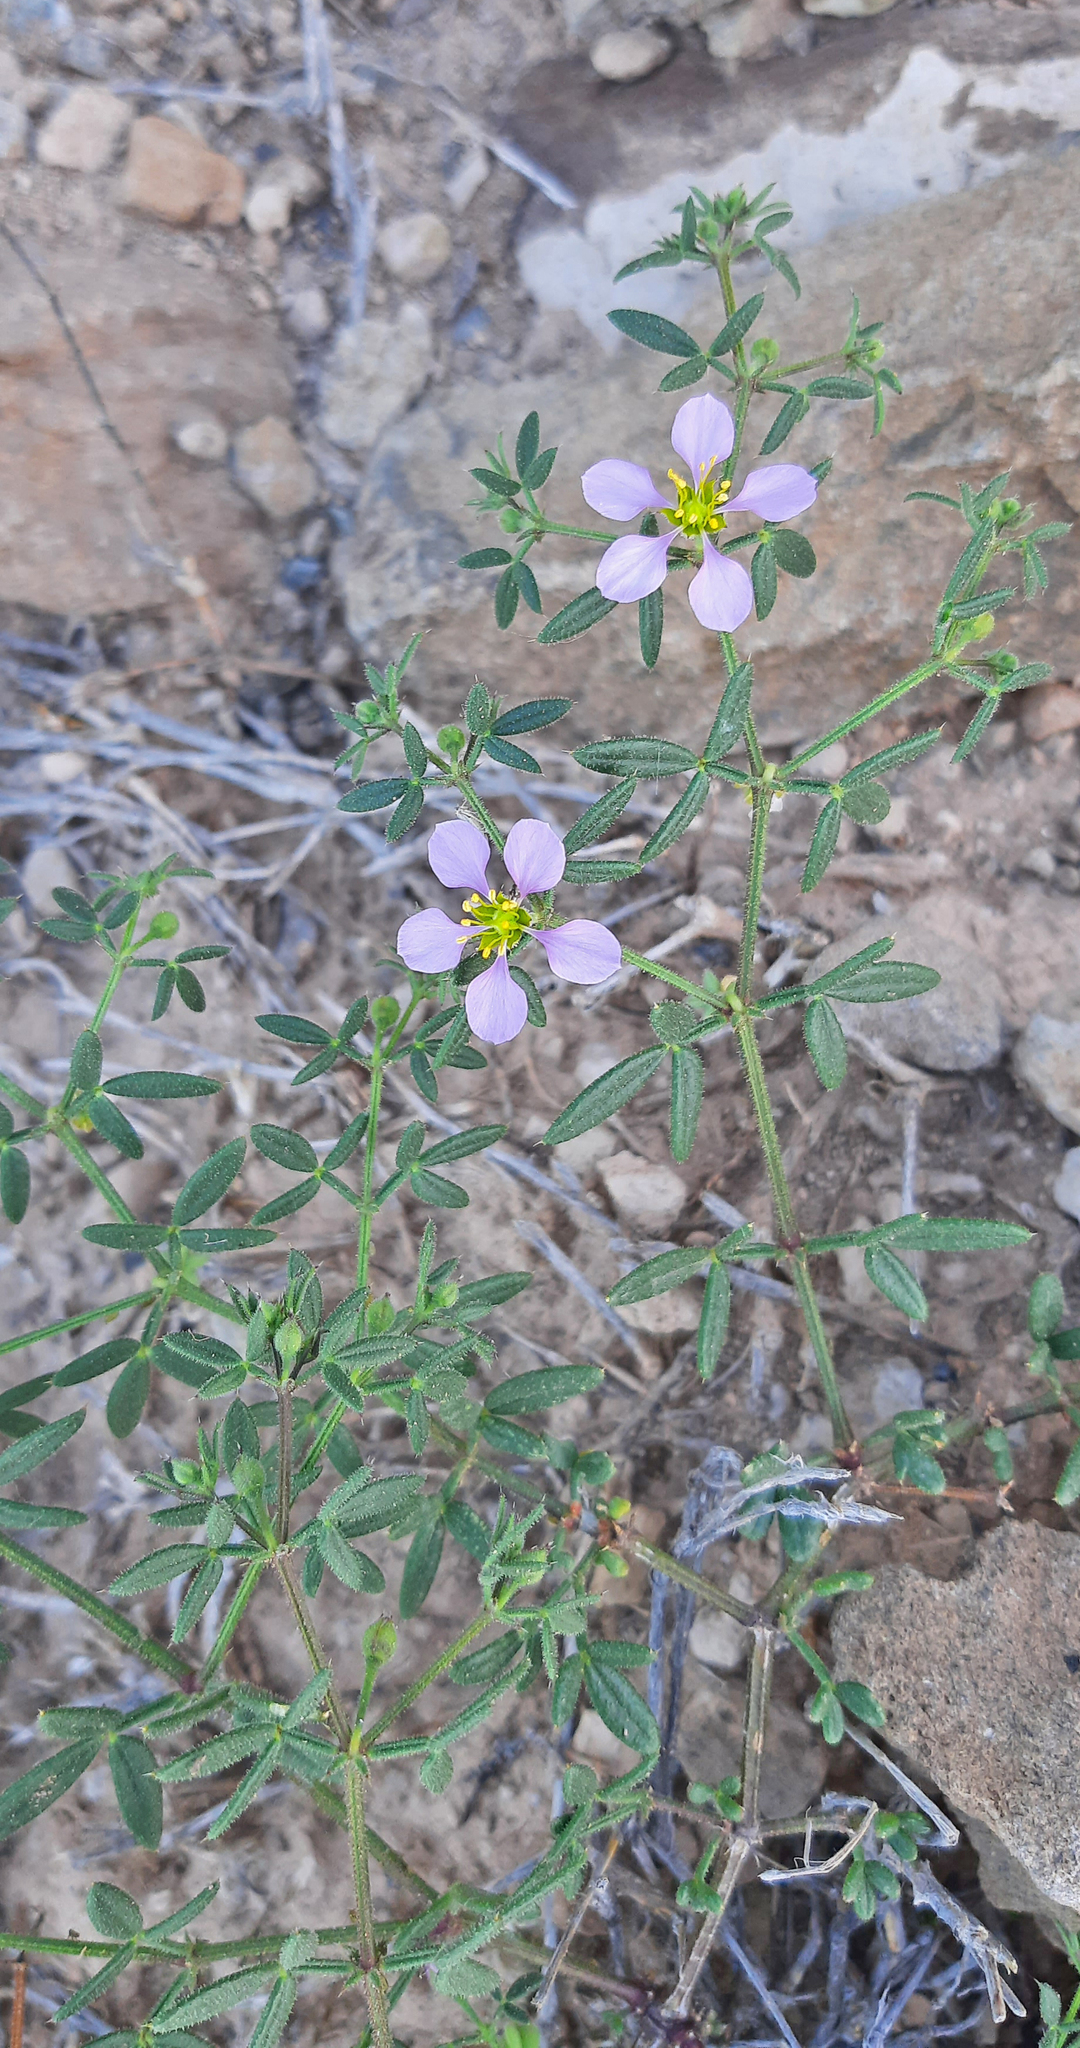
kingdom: Plantae
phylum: Tracheophyta
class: Magnoliopsida
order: Zygophyllales
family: Zygophyllaceae
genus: Fagonia
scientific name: Fagonia cretica
